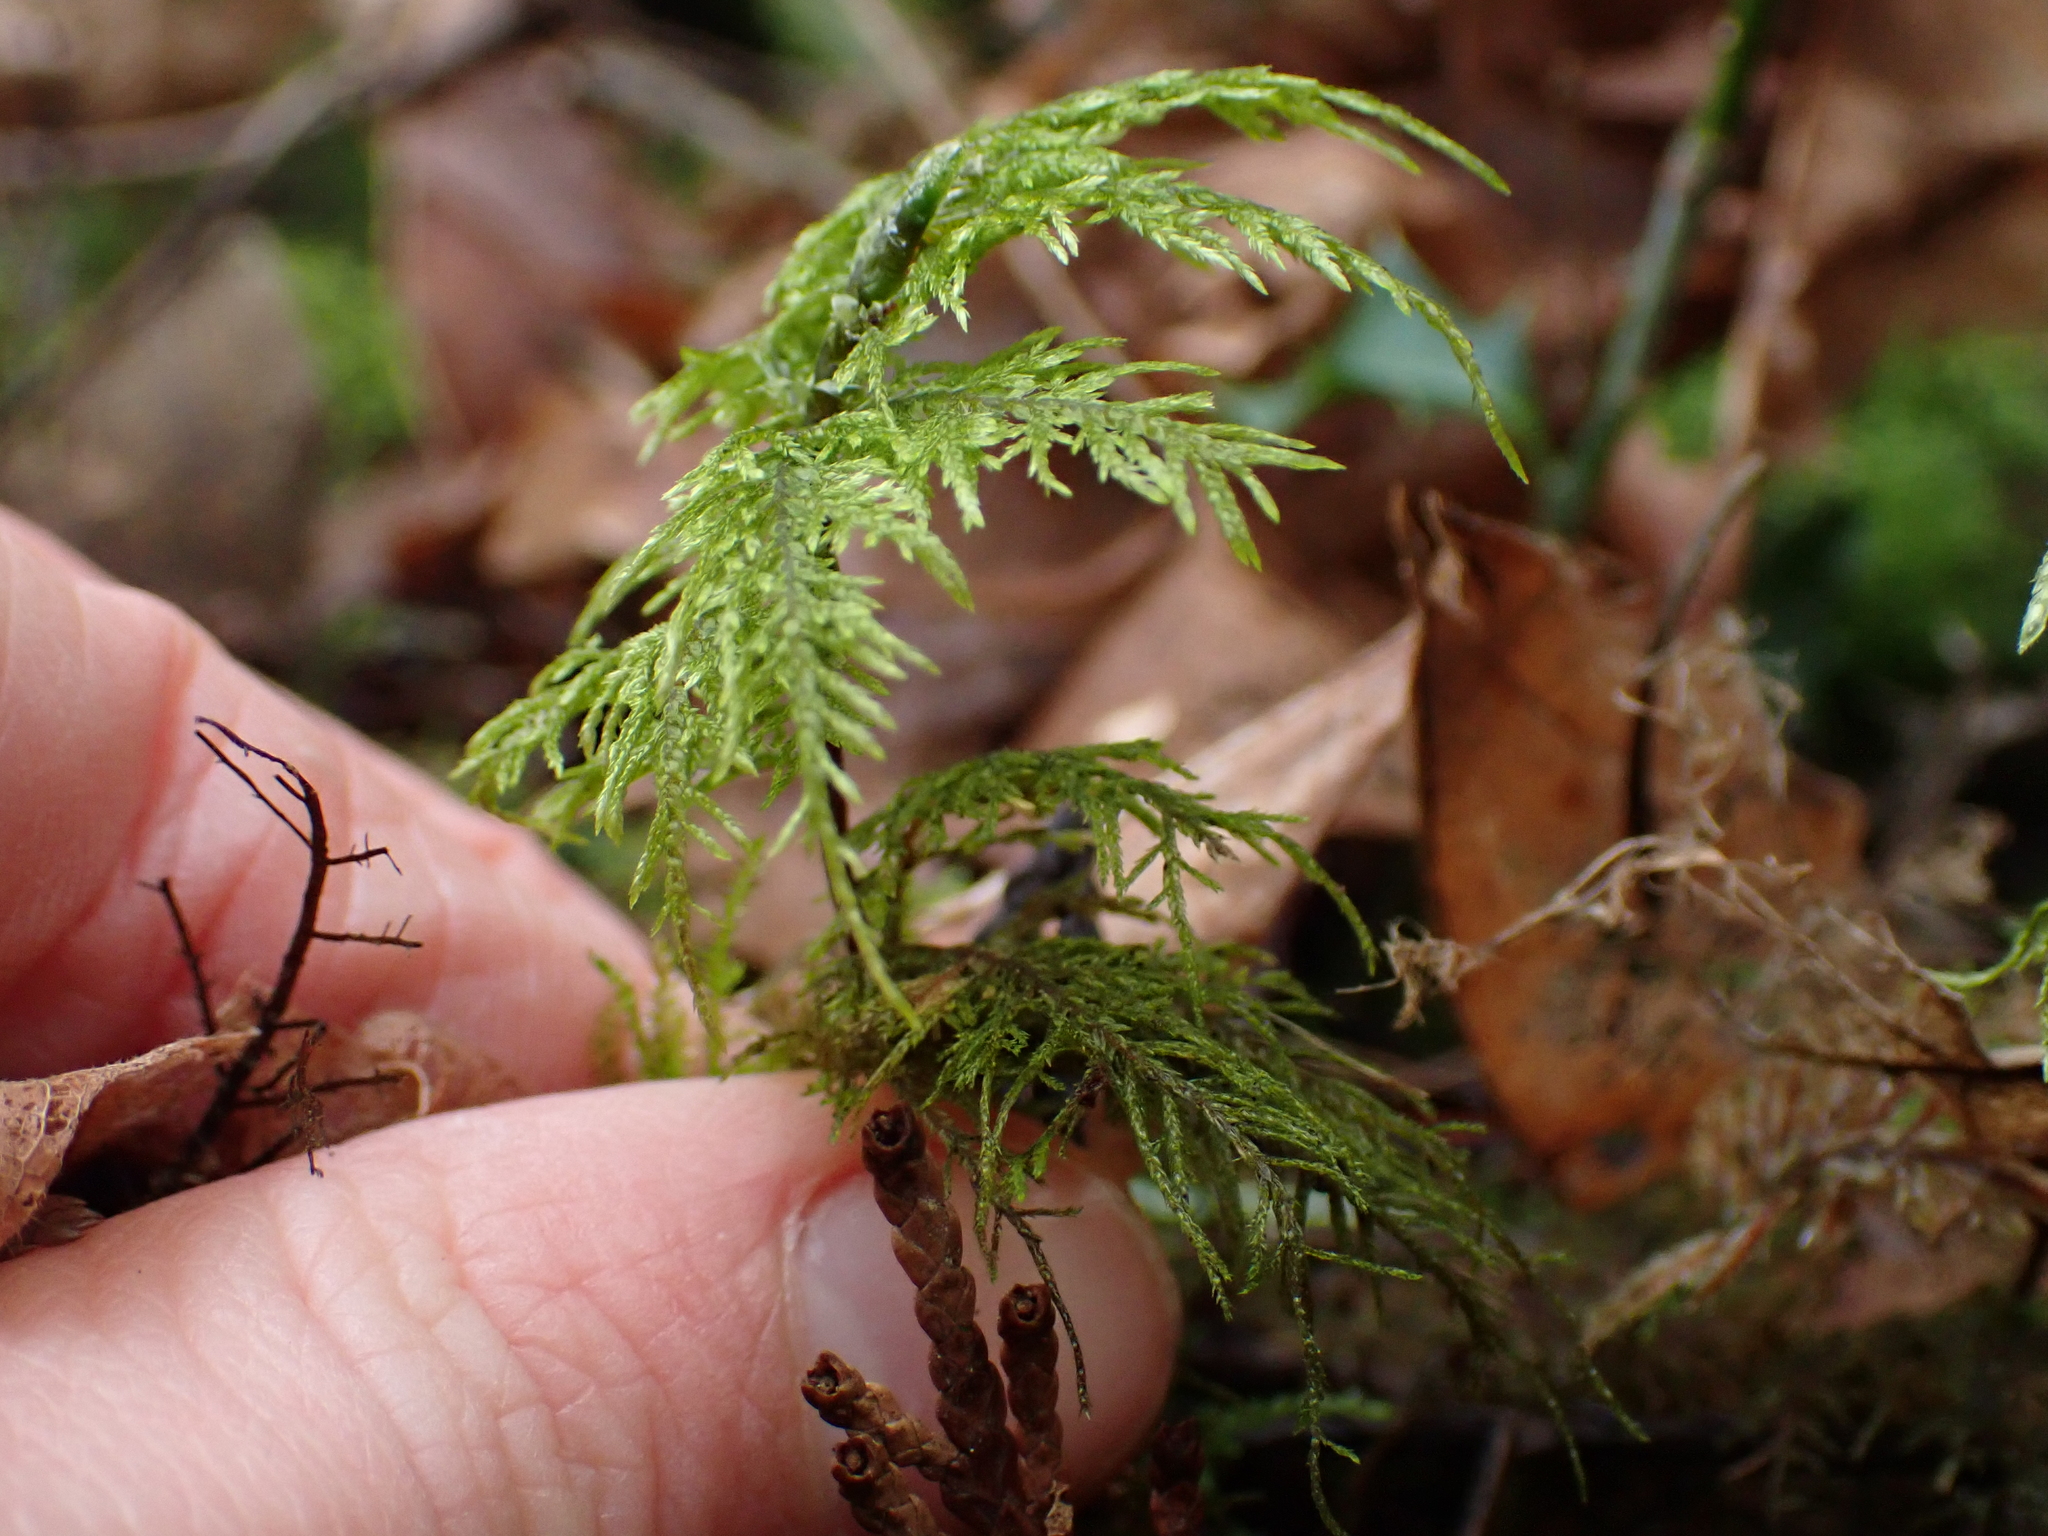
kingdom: Plantae
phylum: Bryophyta
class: Bryopsida
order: Hypnales
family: Hylocomiaceae
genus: Hylocomium
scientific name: Hylocomium splendens
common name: Stairstep moss
